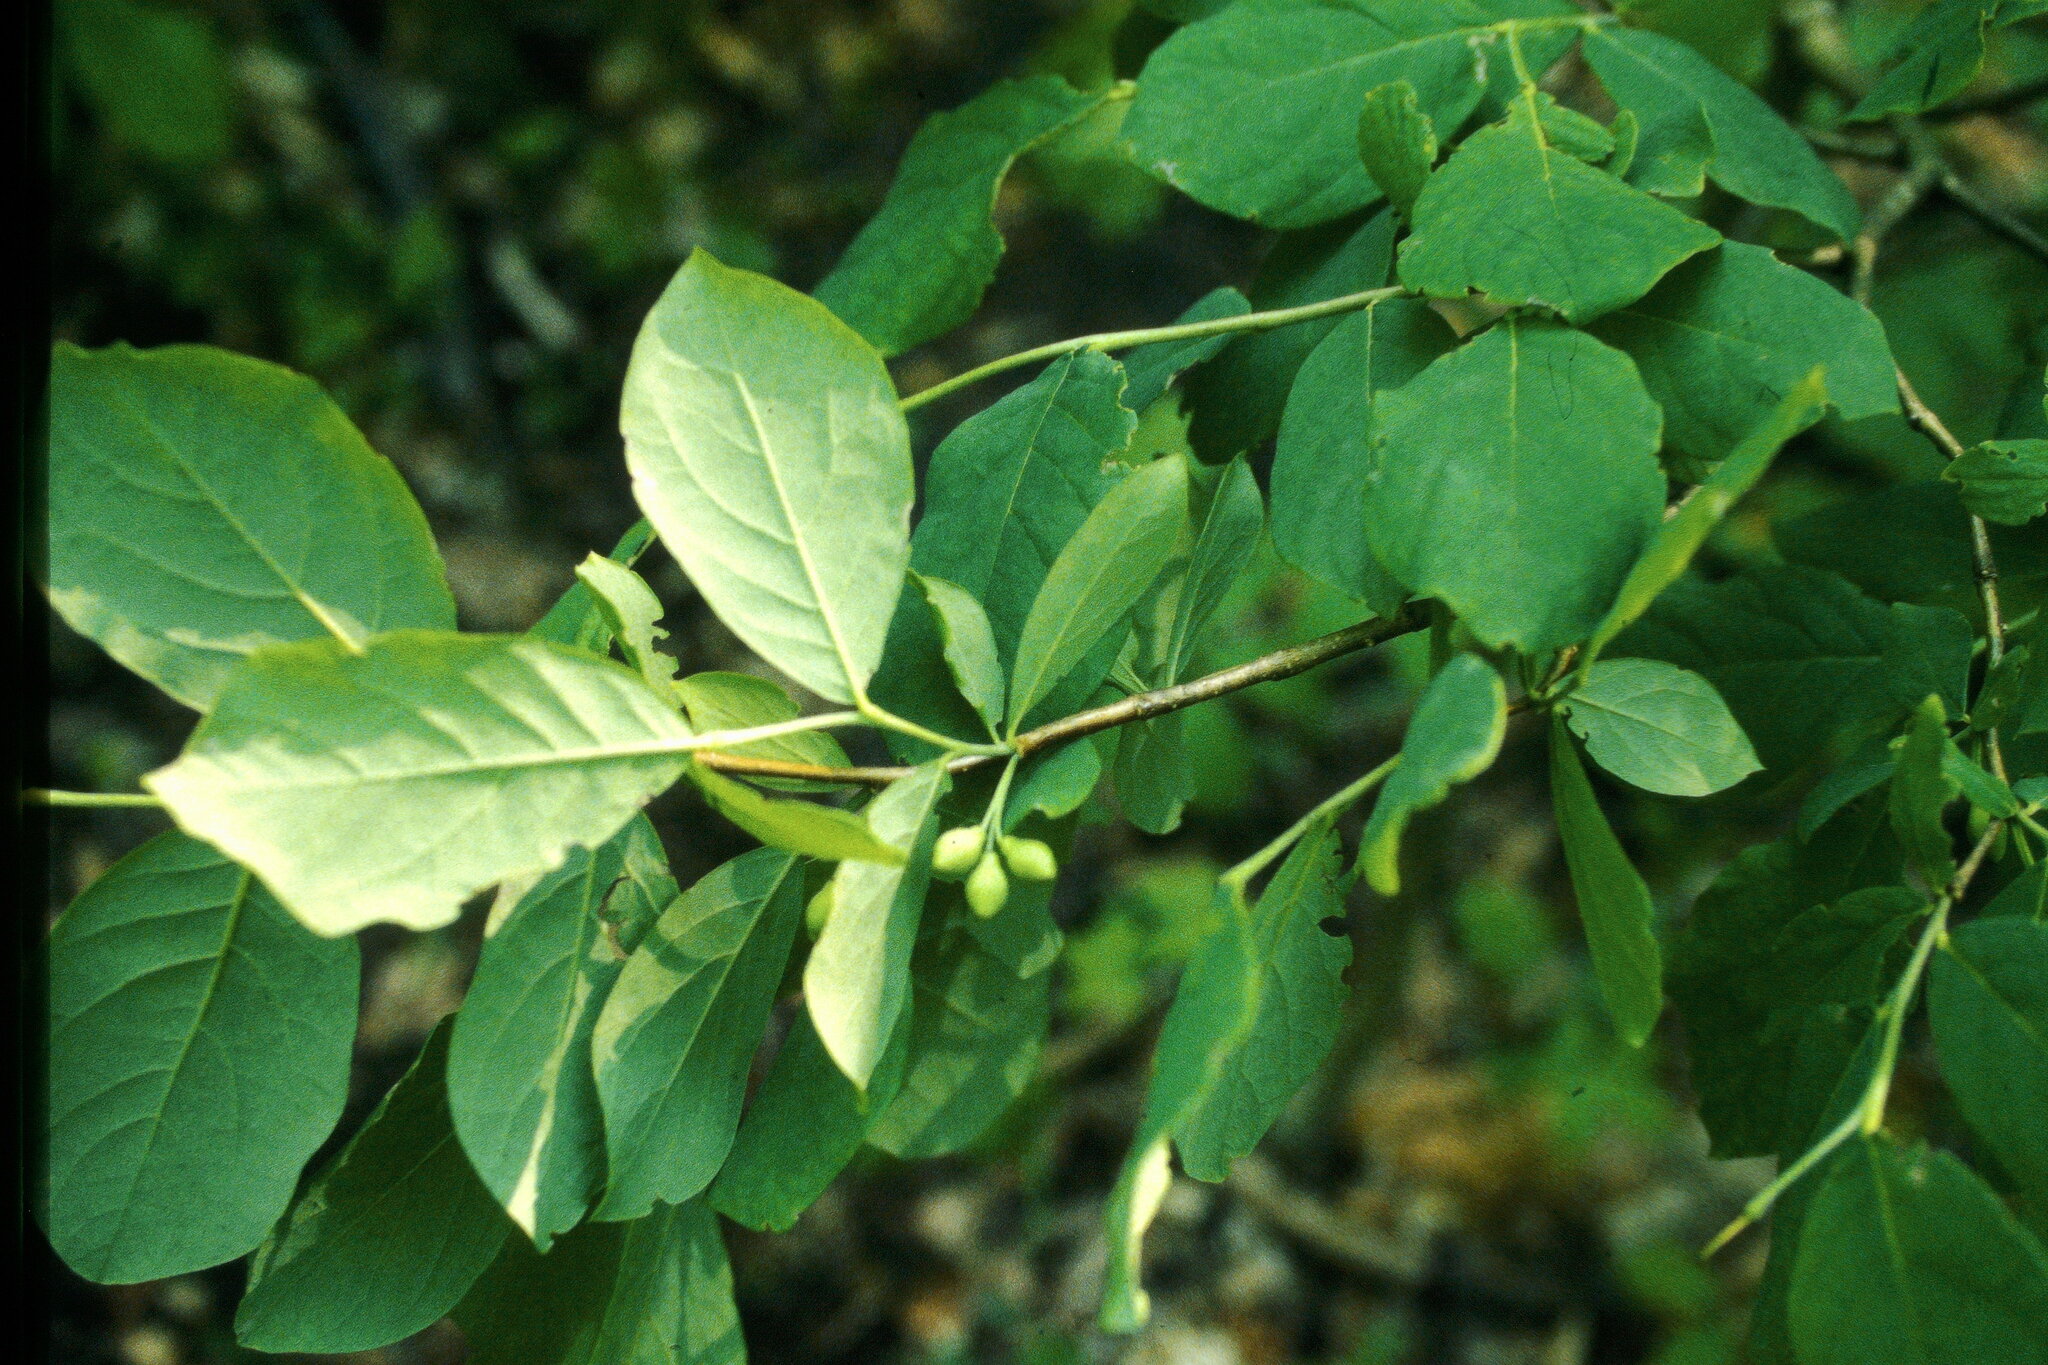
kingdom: Plantae
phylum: Tracheophyta
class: Magnoliopsida
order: Malvales
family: Thymelaeaceae
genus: Dirca
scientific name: Dirca palustris
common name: Leatherwood
